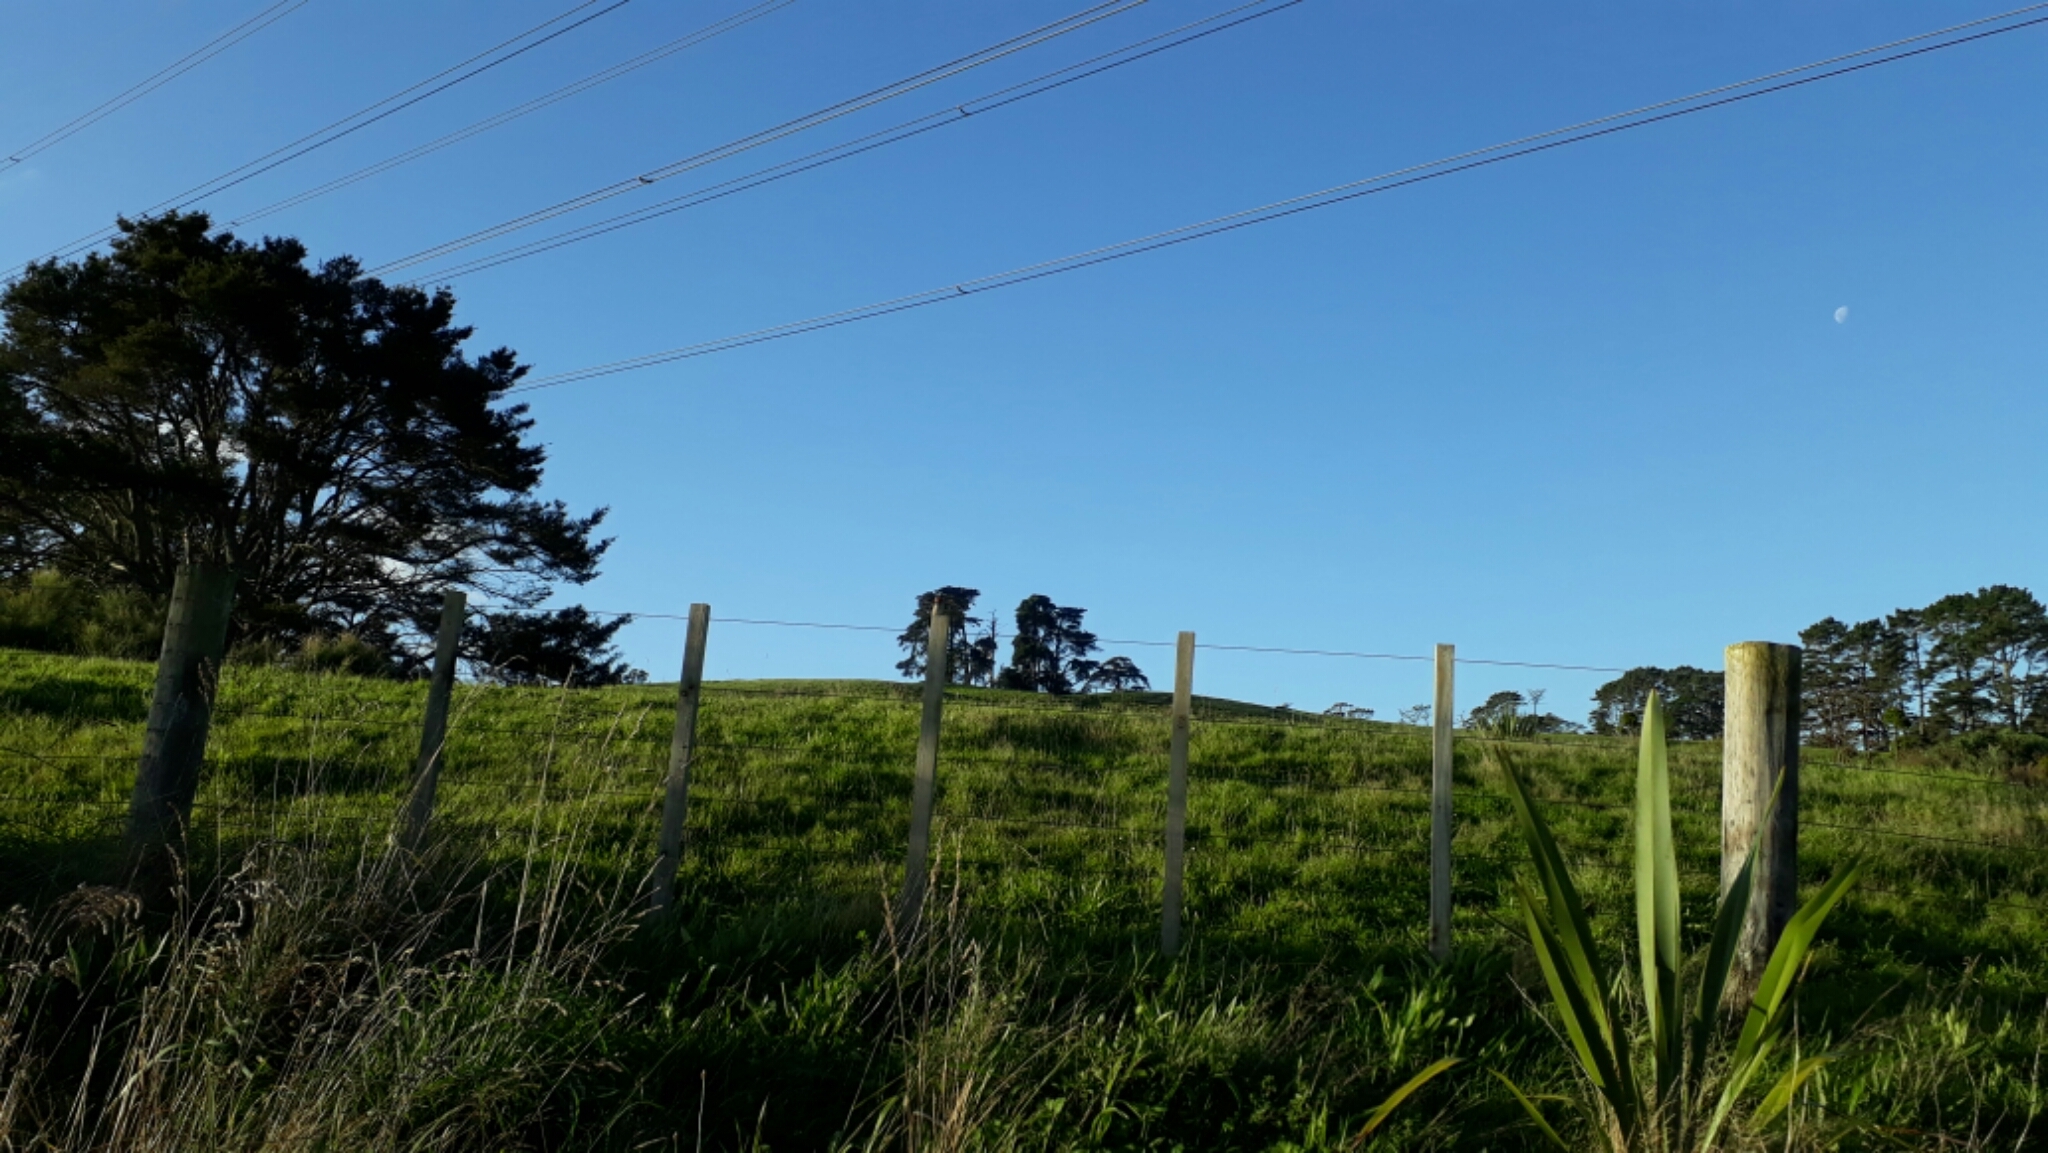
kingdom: Animalia
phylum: Chordata
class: Aves
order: Passeriformes
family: Hirundinidae
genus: Hirundo
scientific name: Hirundo neoxena
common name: Welcome swallow
